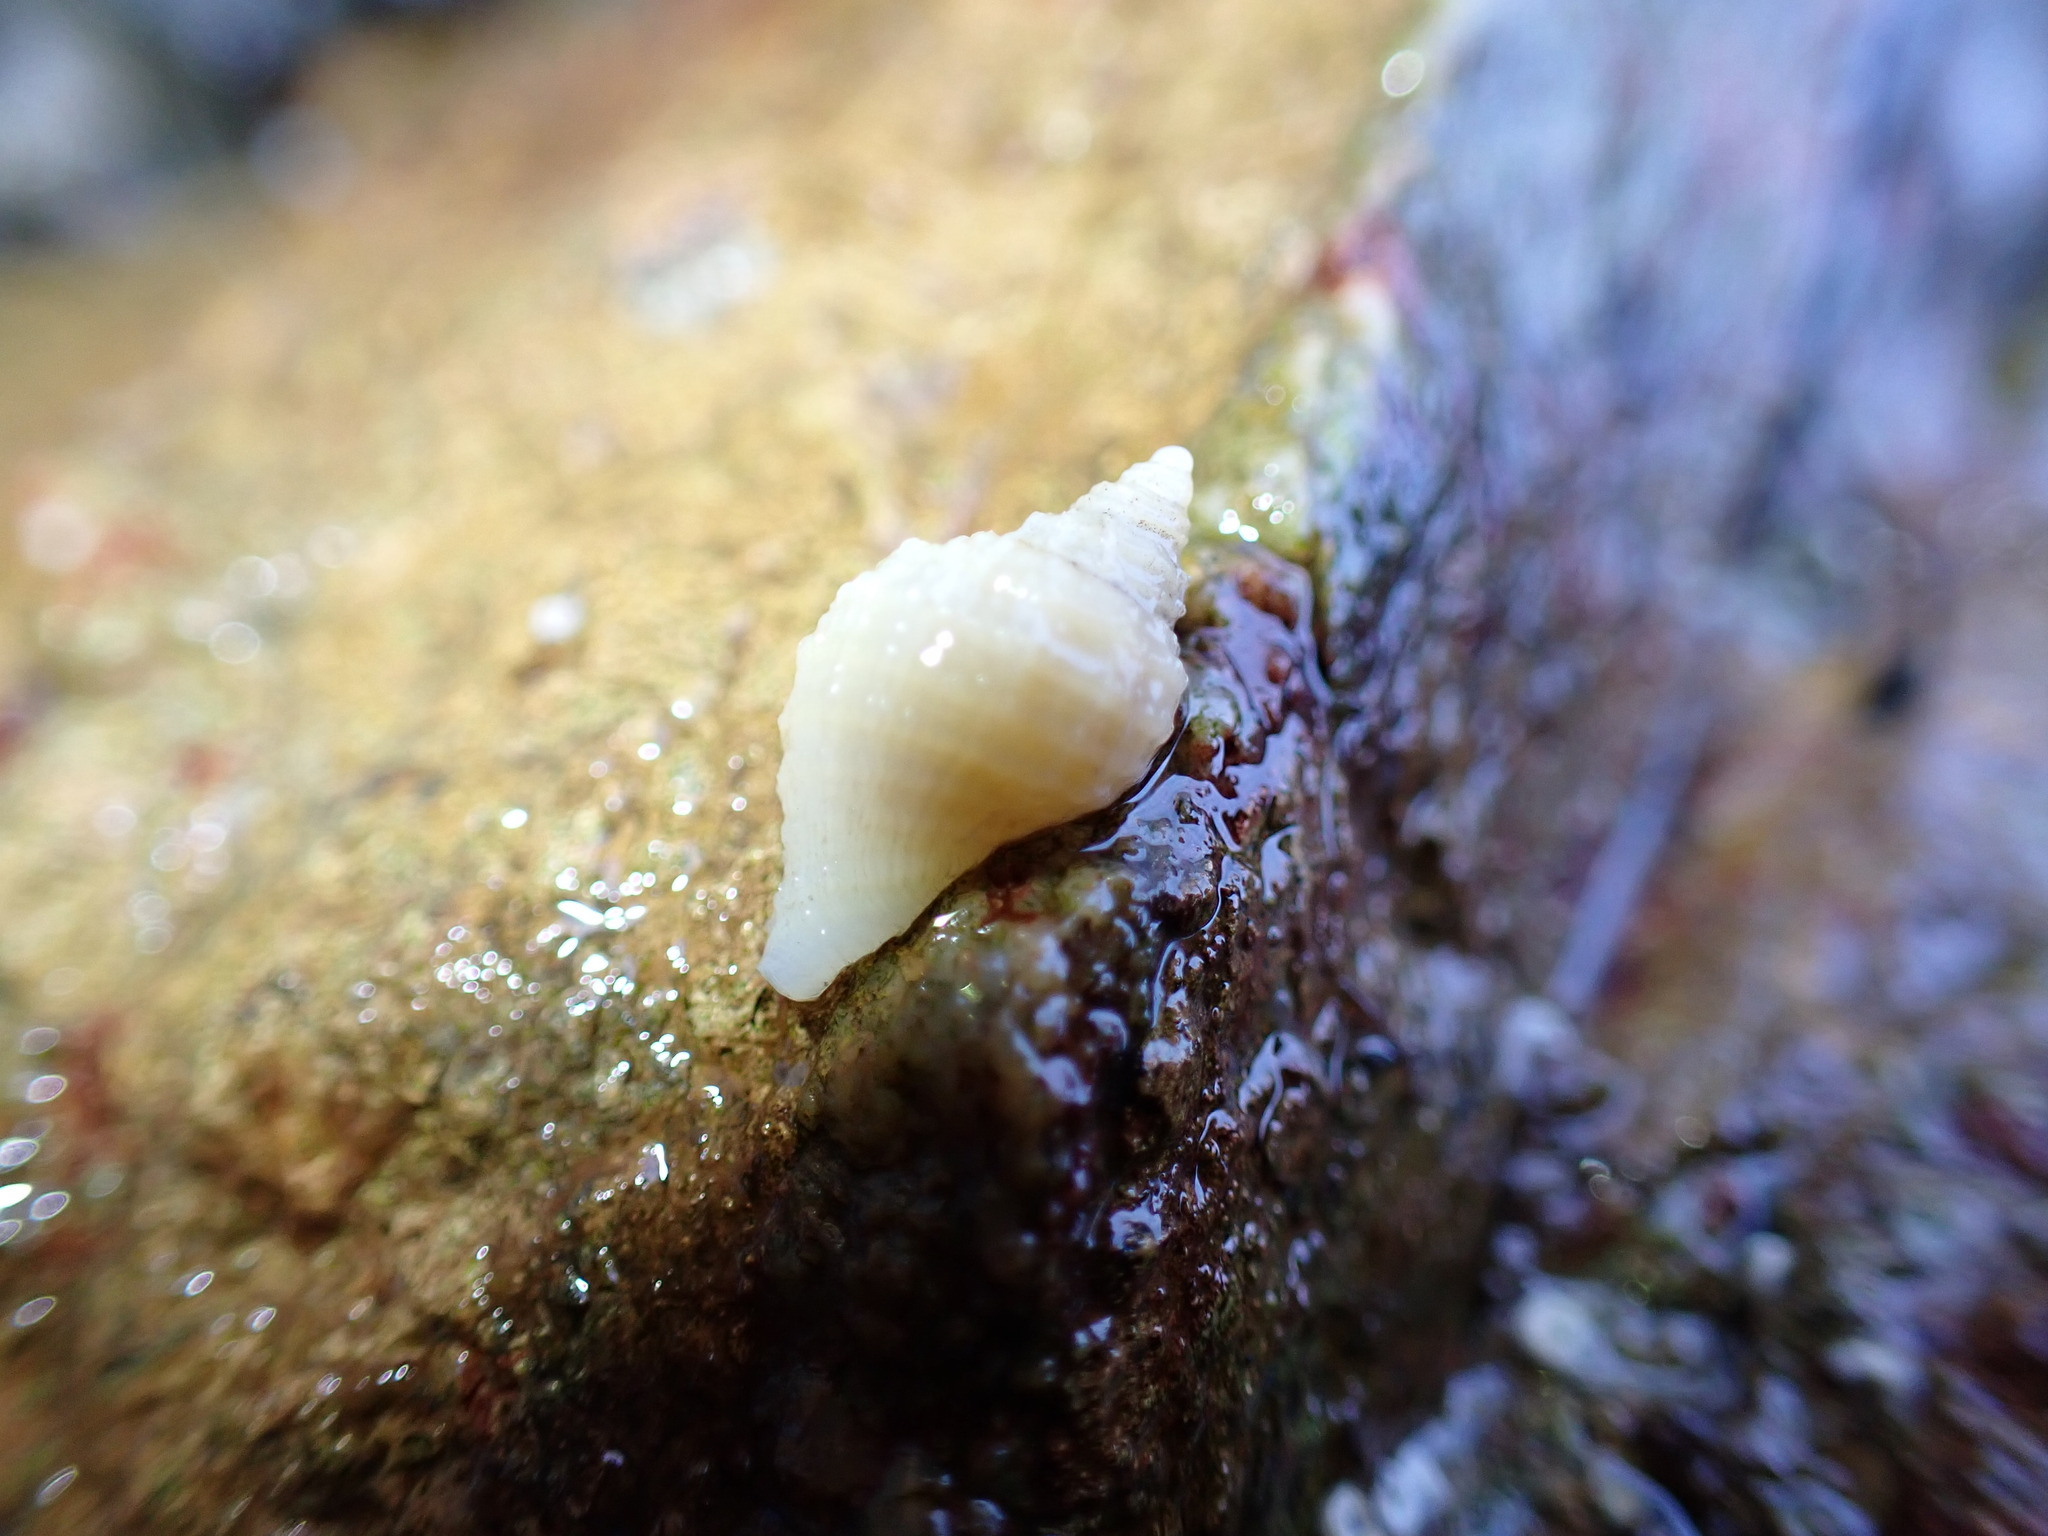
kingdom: Animalia
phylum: Mollusca
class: Gastropoda
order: Neogastropoda
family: Muricidae
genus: Nucella
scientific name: Nucella lapillus
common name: Dog whelk
